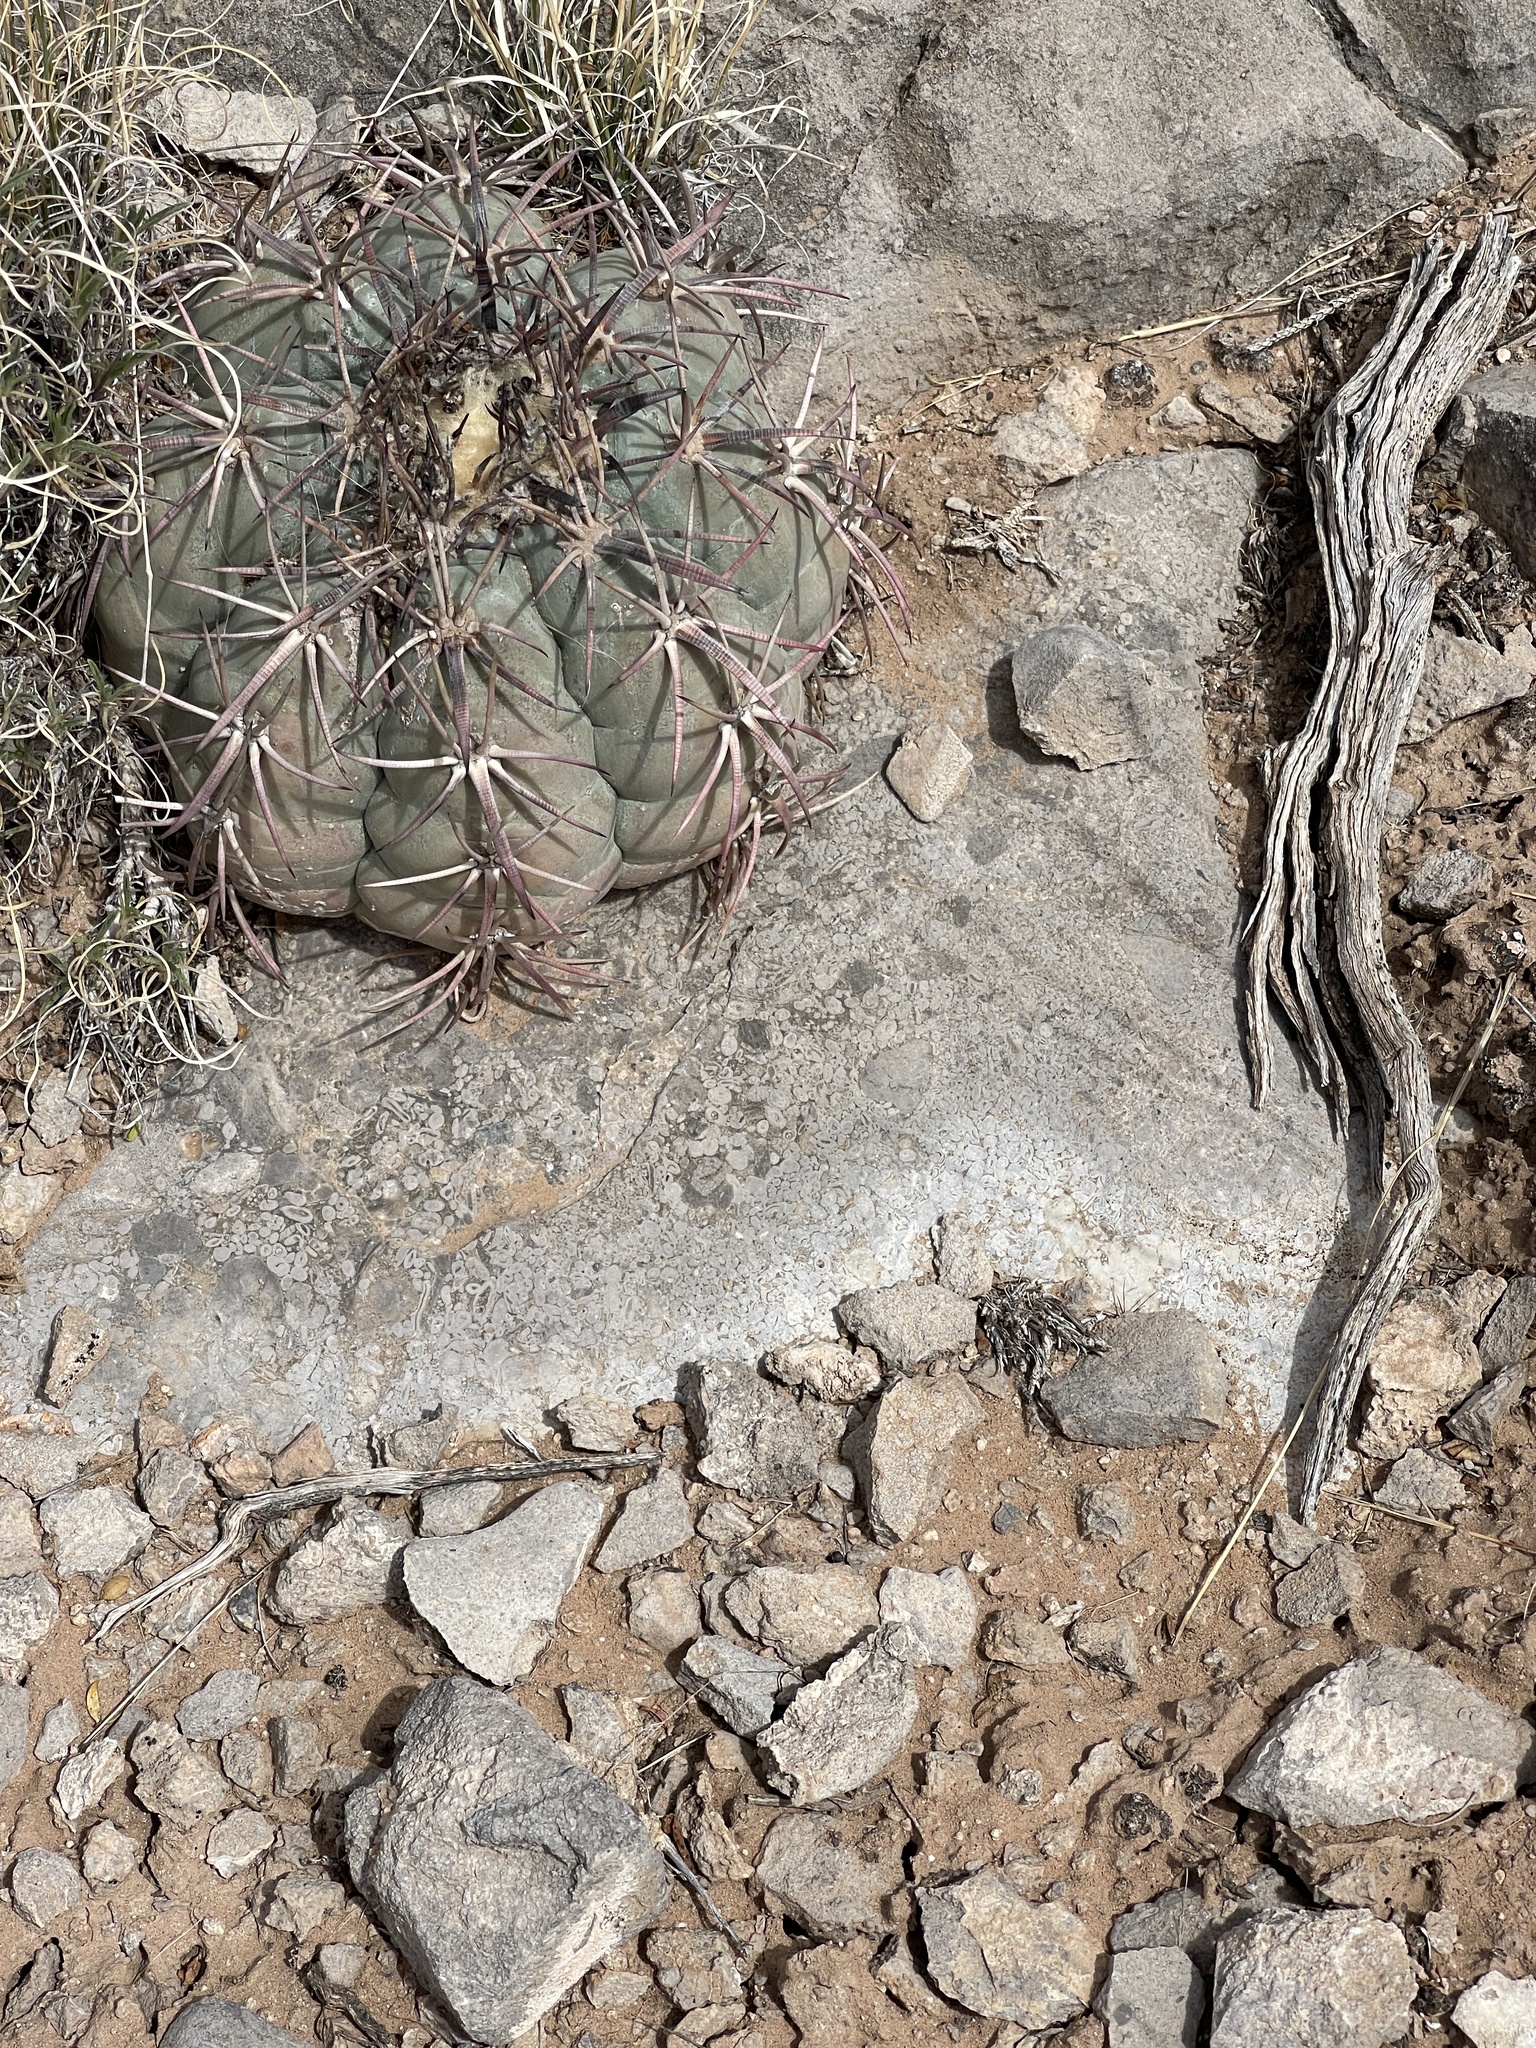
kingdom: Plantae
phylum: Tracheophyta
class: Magnoliopsida
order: Caryophyllales
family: Cactaceae
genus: Echinocactus
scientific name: Echinocactus horizonthalonius
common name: Devilshead
